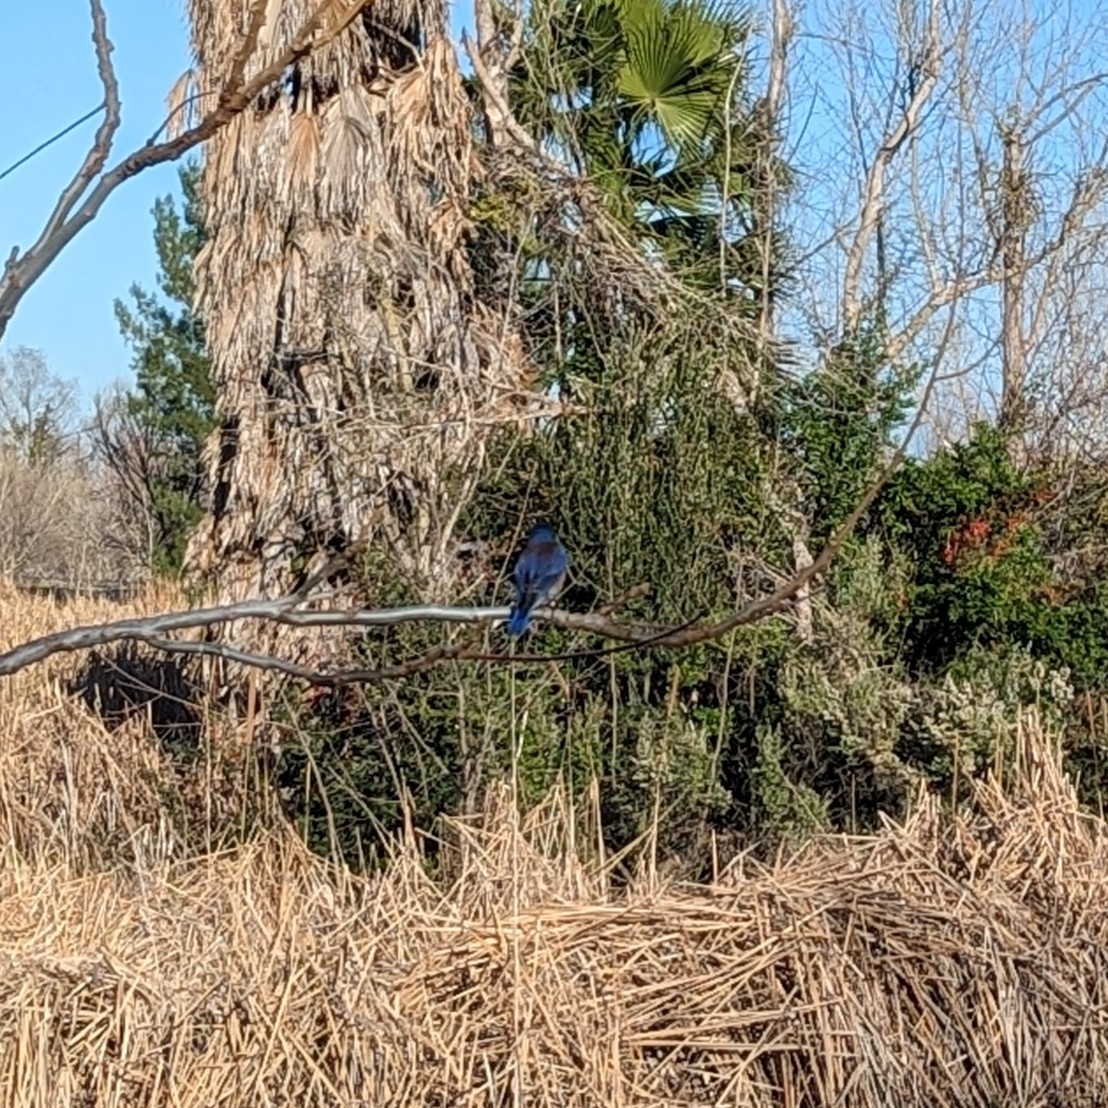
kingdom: Animalia
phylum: Chordata
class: Aves
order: Passeriformes
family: Turdidae
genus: Sialia
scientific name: Sialia mexicana
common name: Western bluebird
